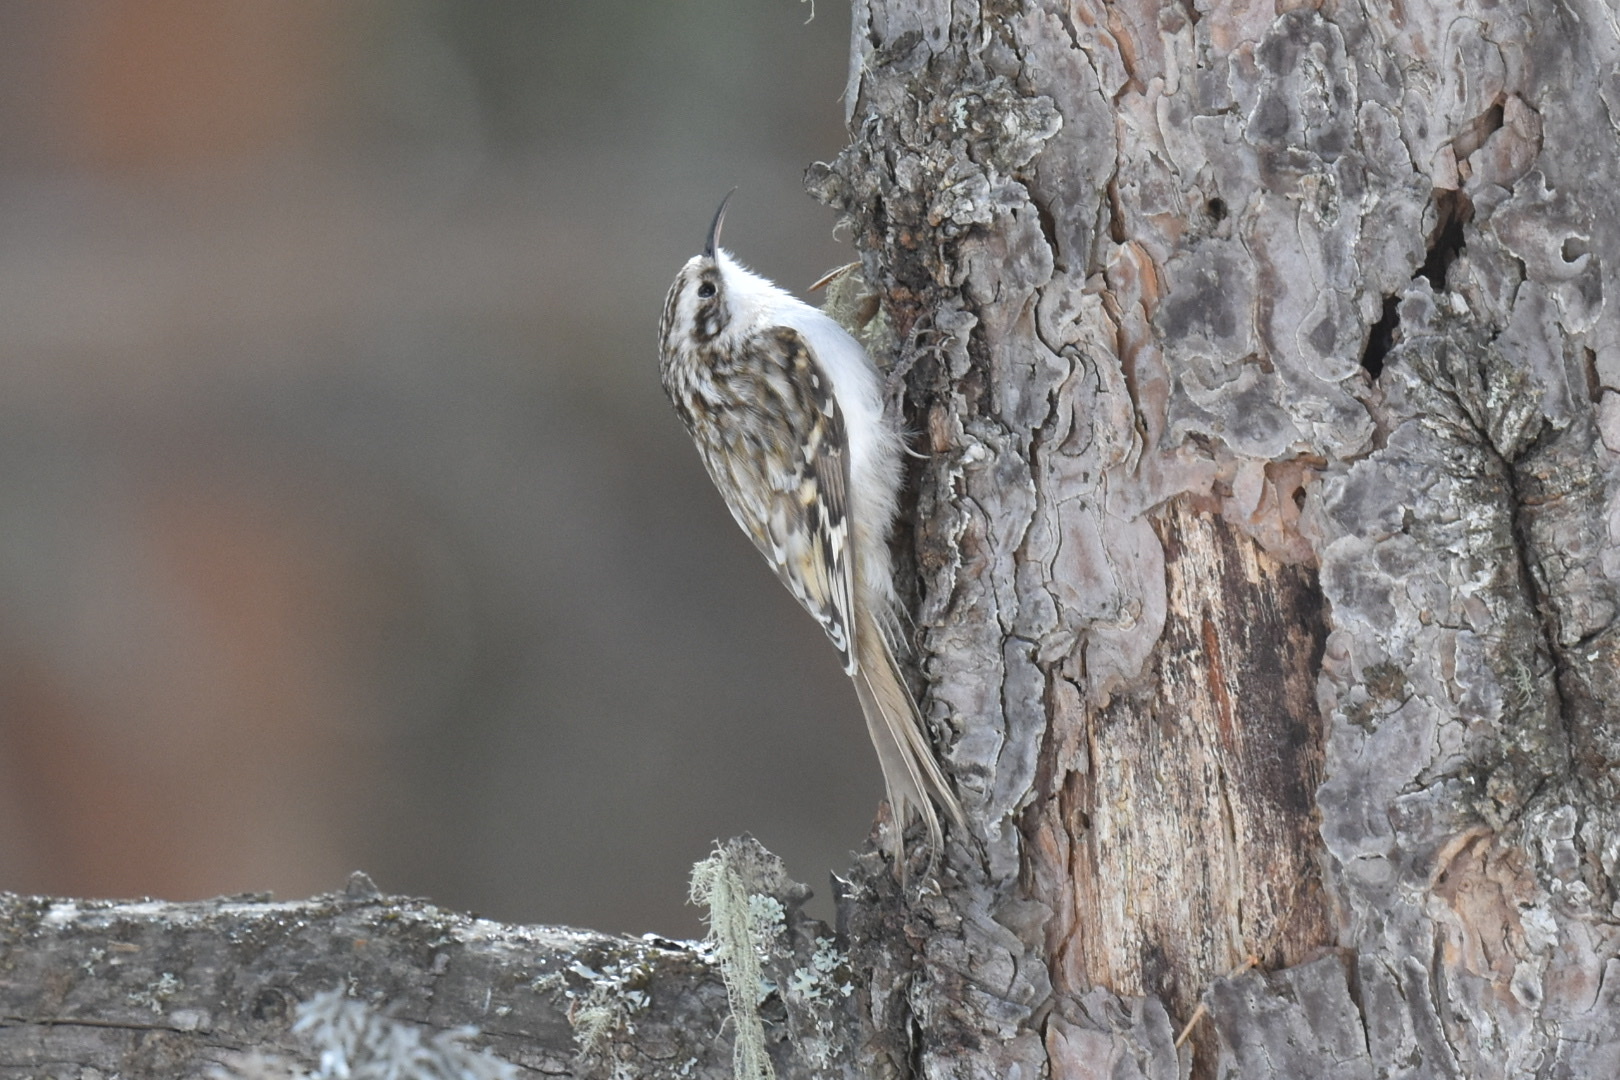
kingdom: Animalia
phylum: Chordata
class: Aves
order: Passeriformes
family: Certhiidae
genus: Certhia
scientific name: Certhia familiaris
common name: Eurasian treecreeper
